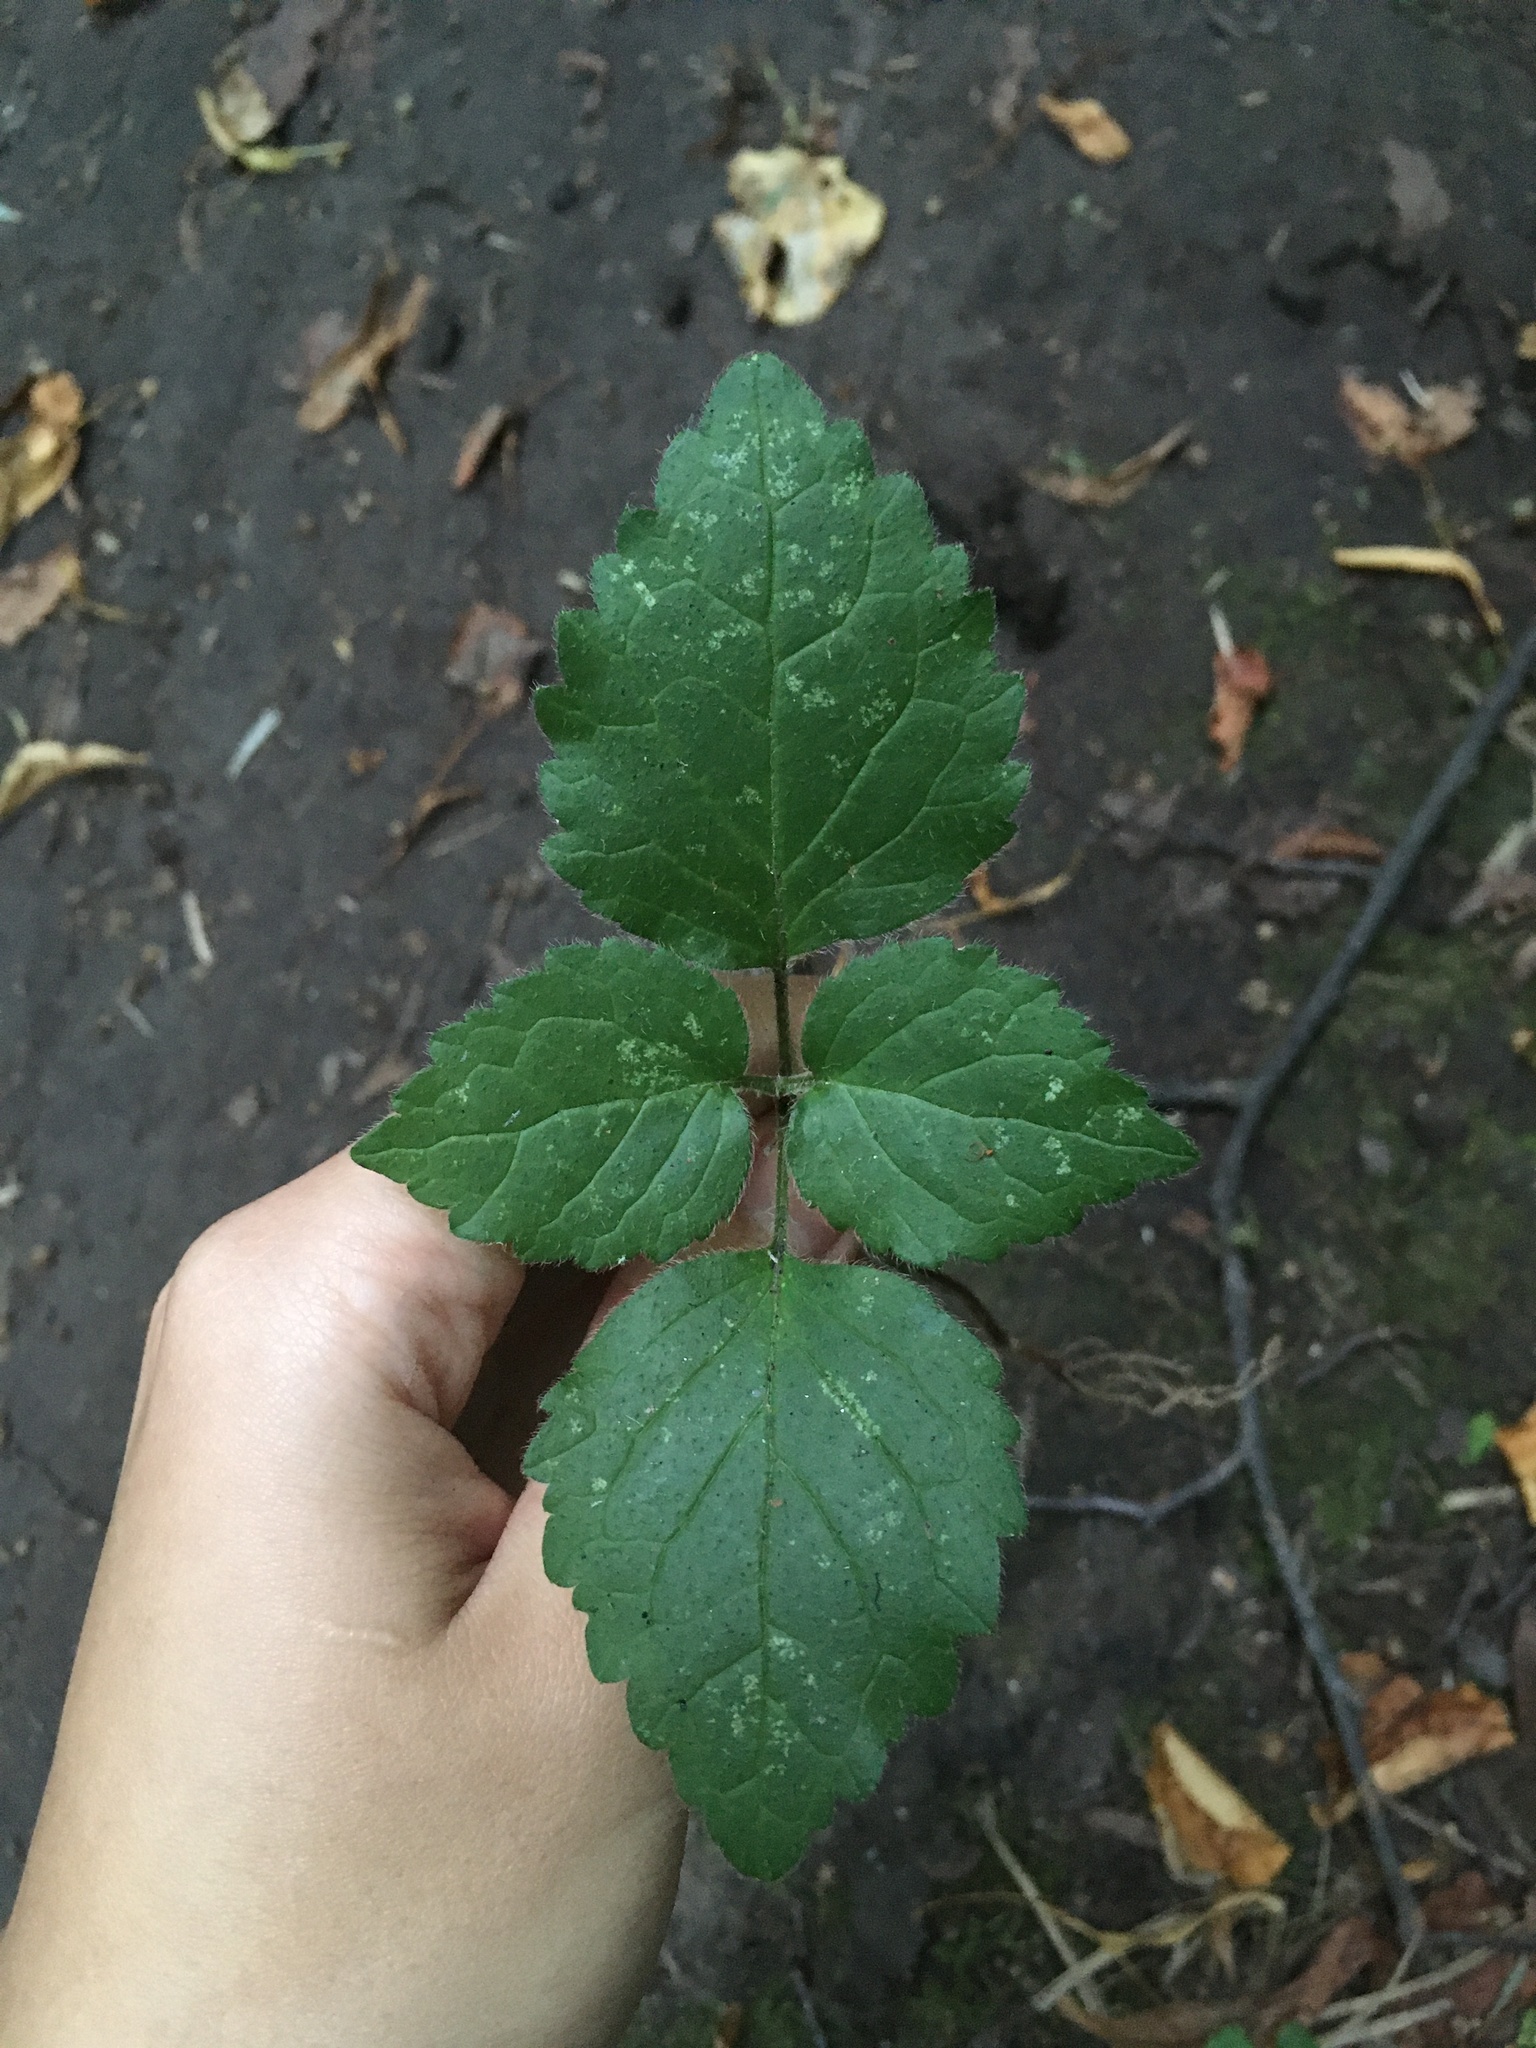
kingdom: Plantae
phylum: Tracheophyta
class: Magnoliopsida
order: Lamiales
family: Lamiaceae
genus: Lamium
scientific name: Lamium galeobdolon
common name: Yellow archangel
